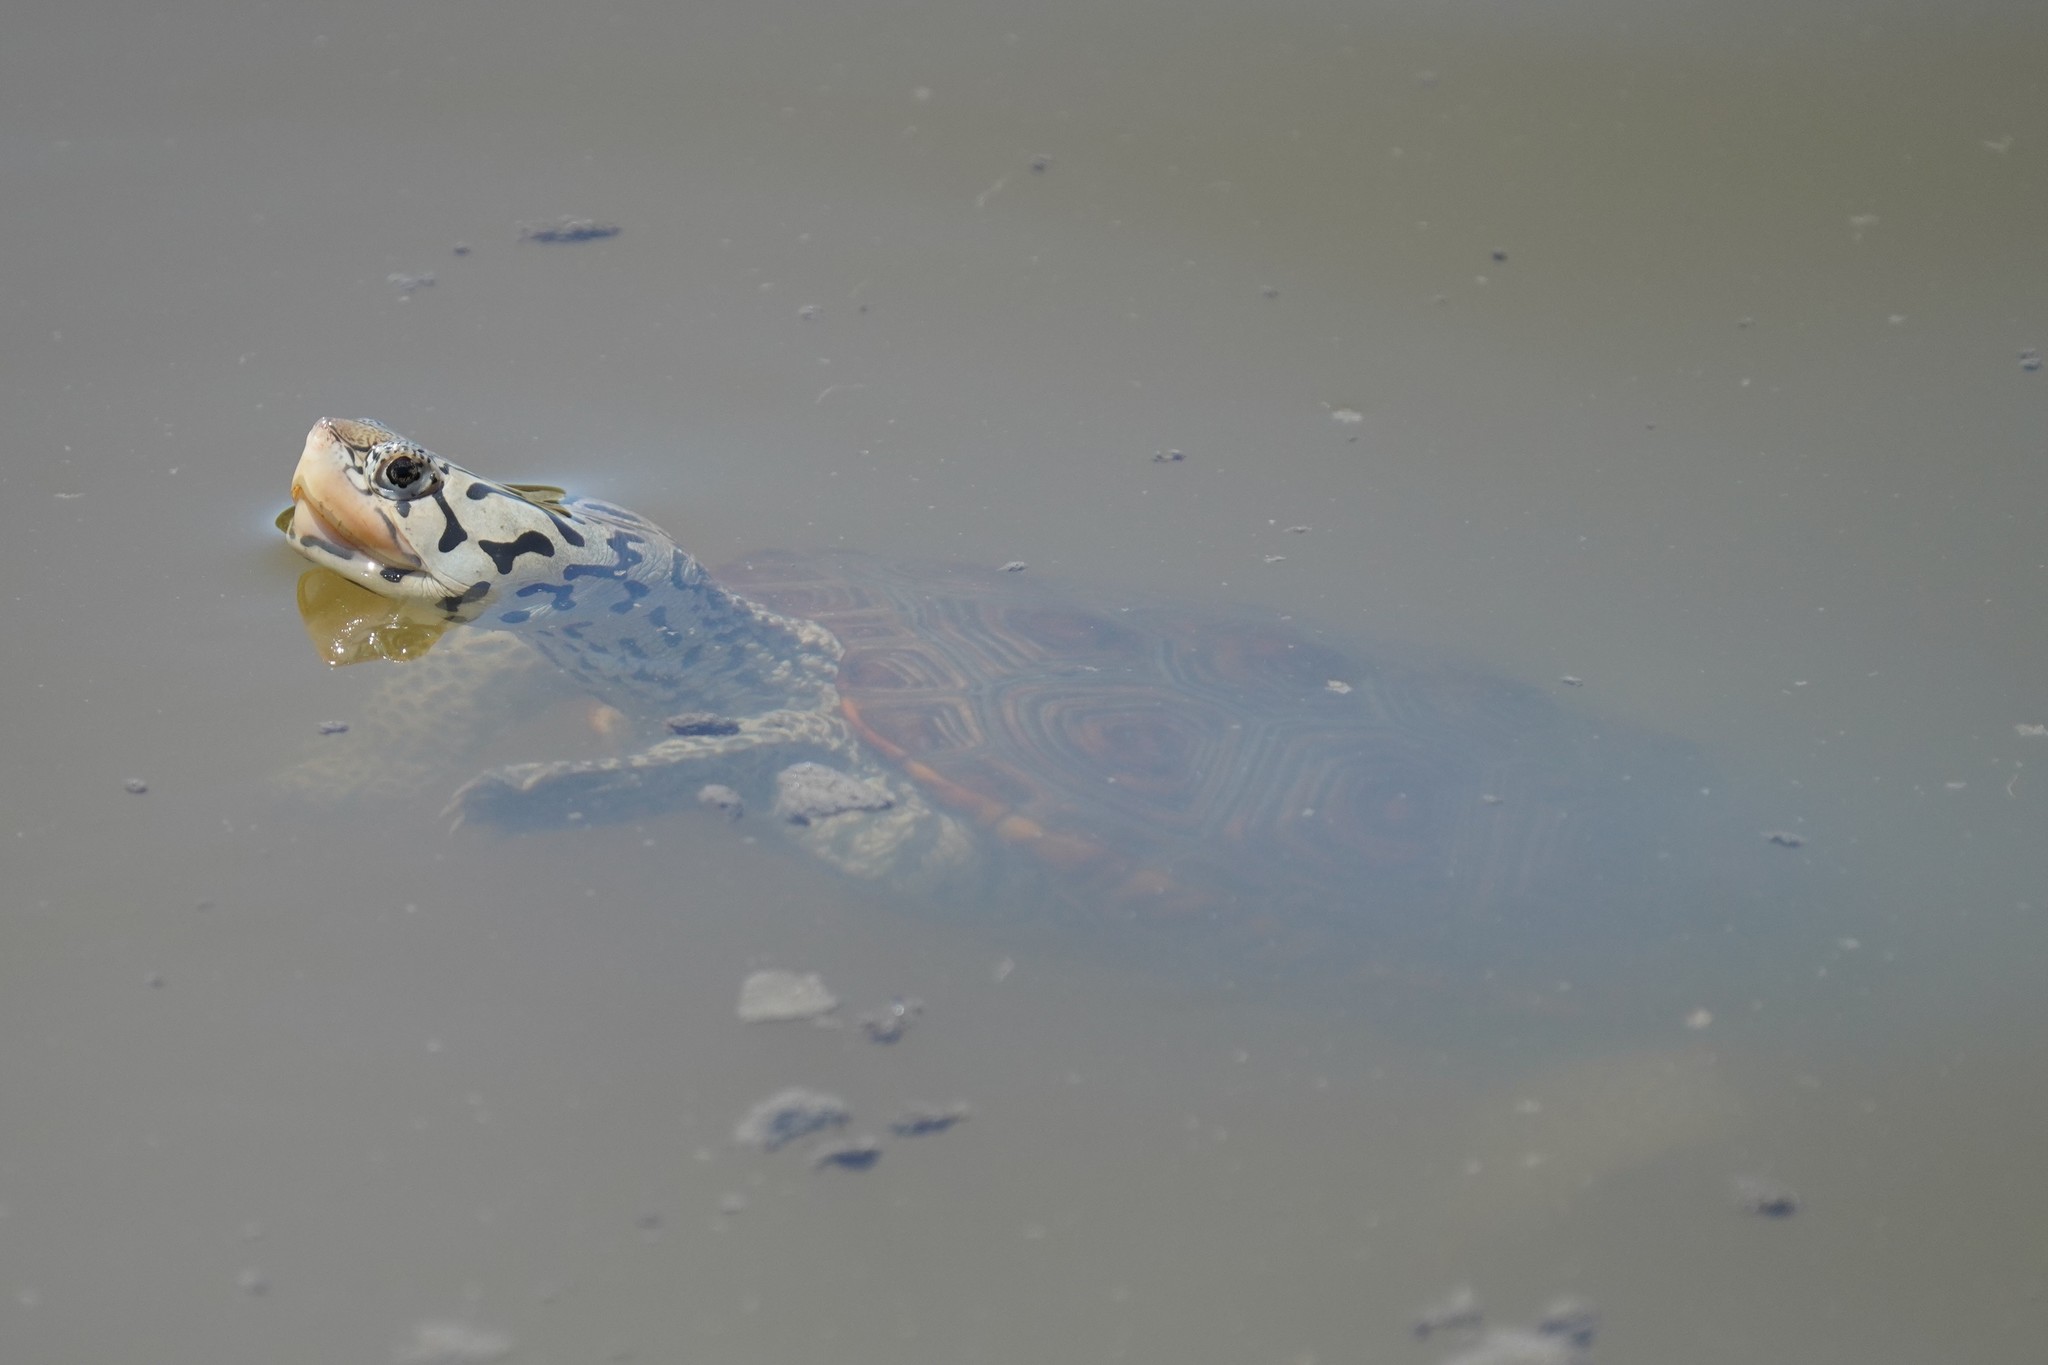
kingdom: Animalia
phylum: Chordata
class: Testudines
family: Emydidae
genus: Malaclemys
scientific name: Malaclemys terrapin
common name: Diamondback terrapin
